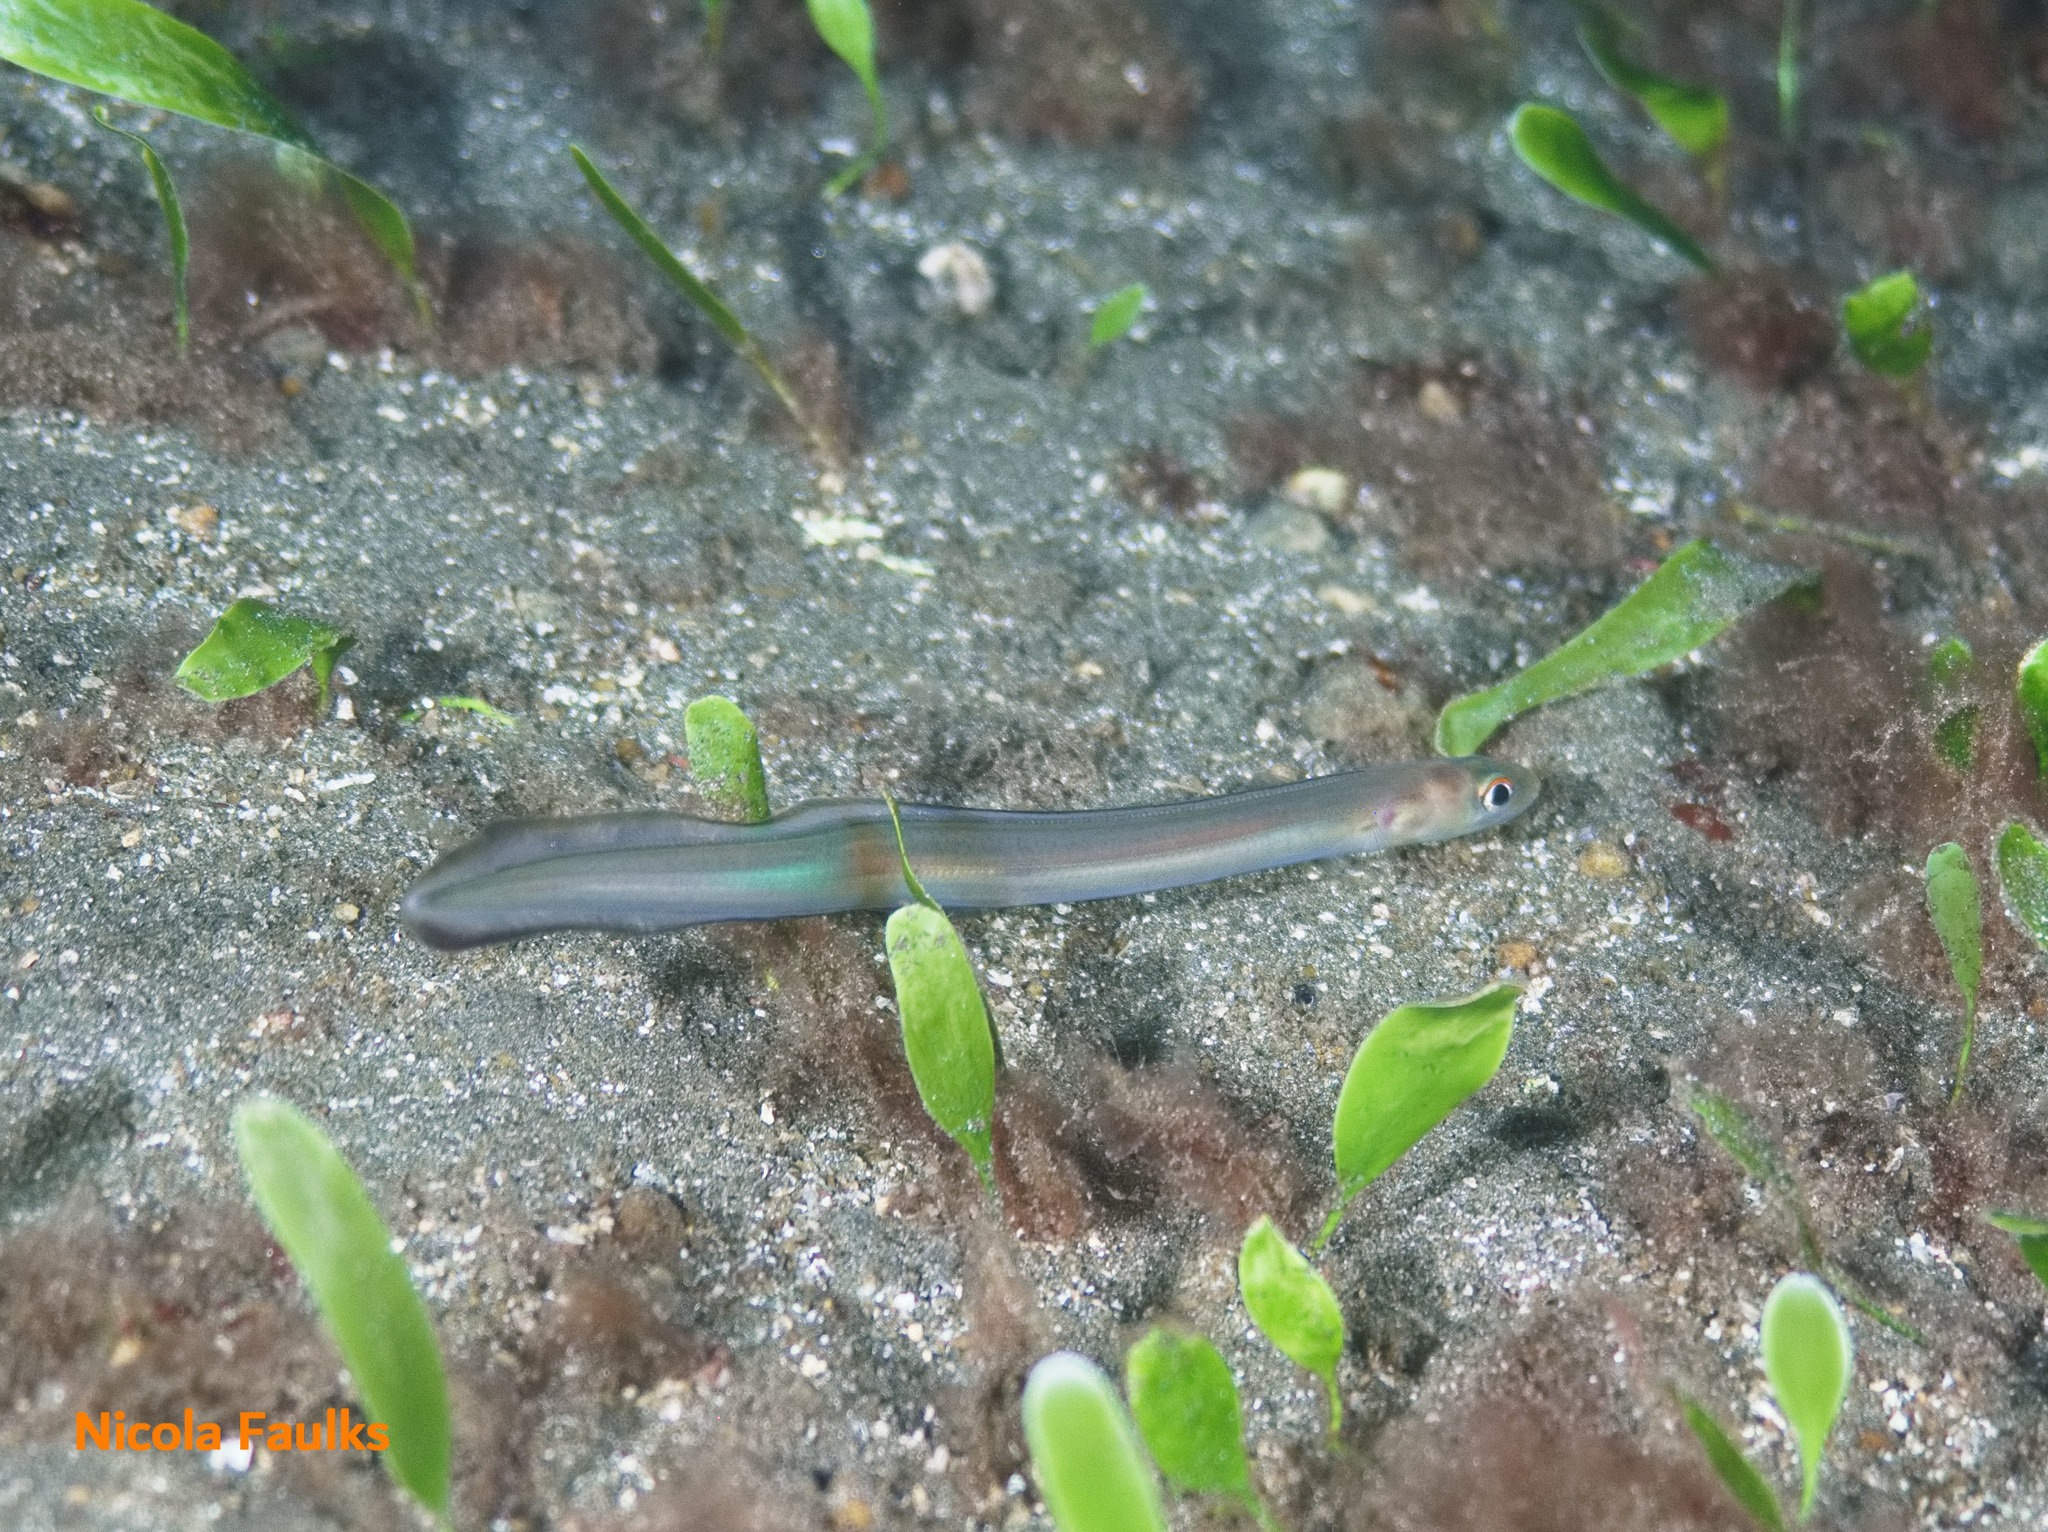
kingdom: Animalia
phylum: Chordata
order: Anguilliformes
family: Congridae
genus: Ariosoma
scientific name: Ariosoma balearicum
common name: Bandtooth conger
